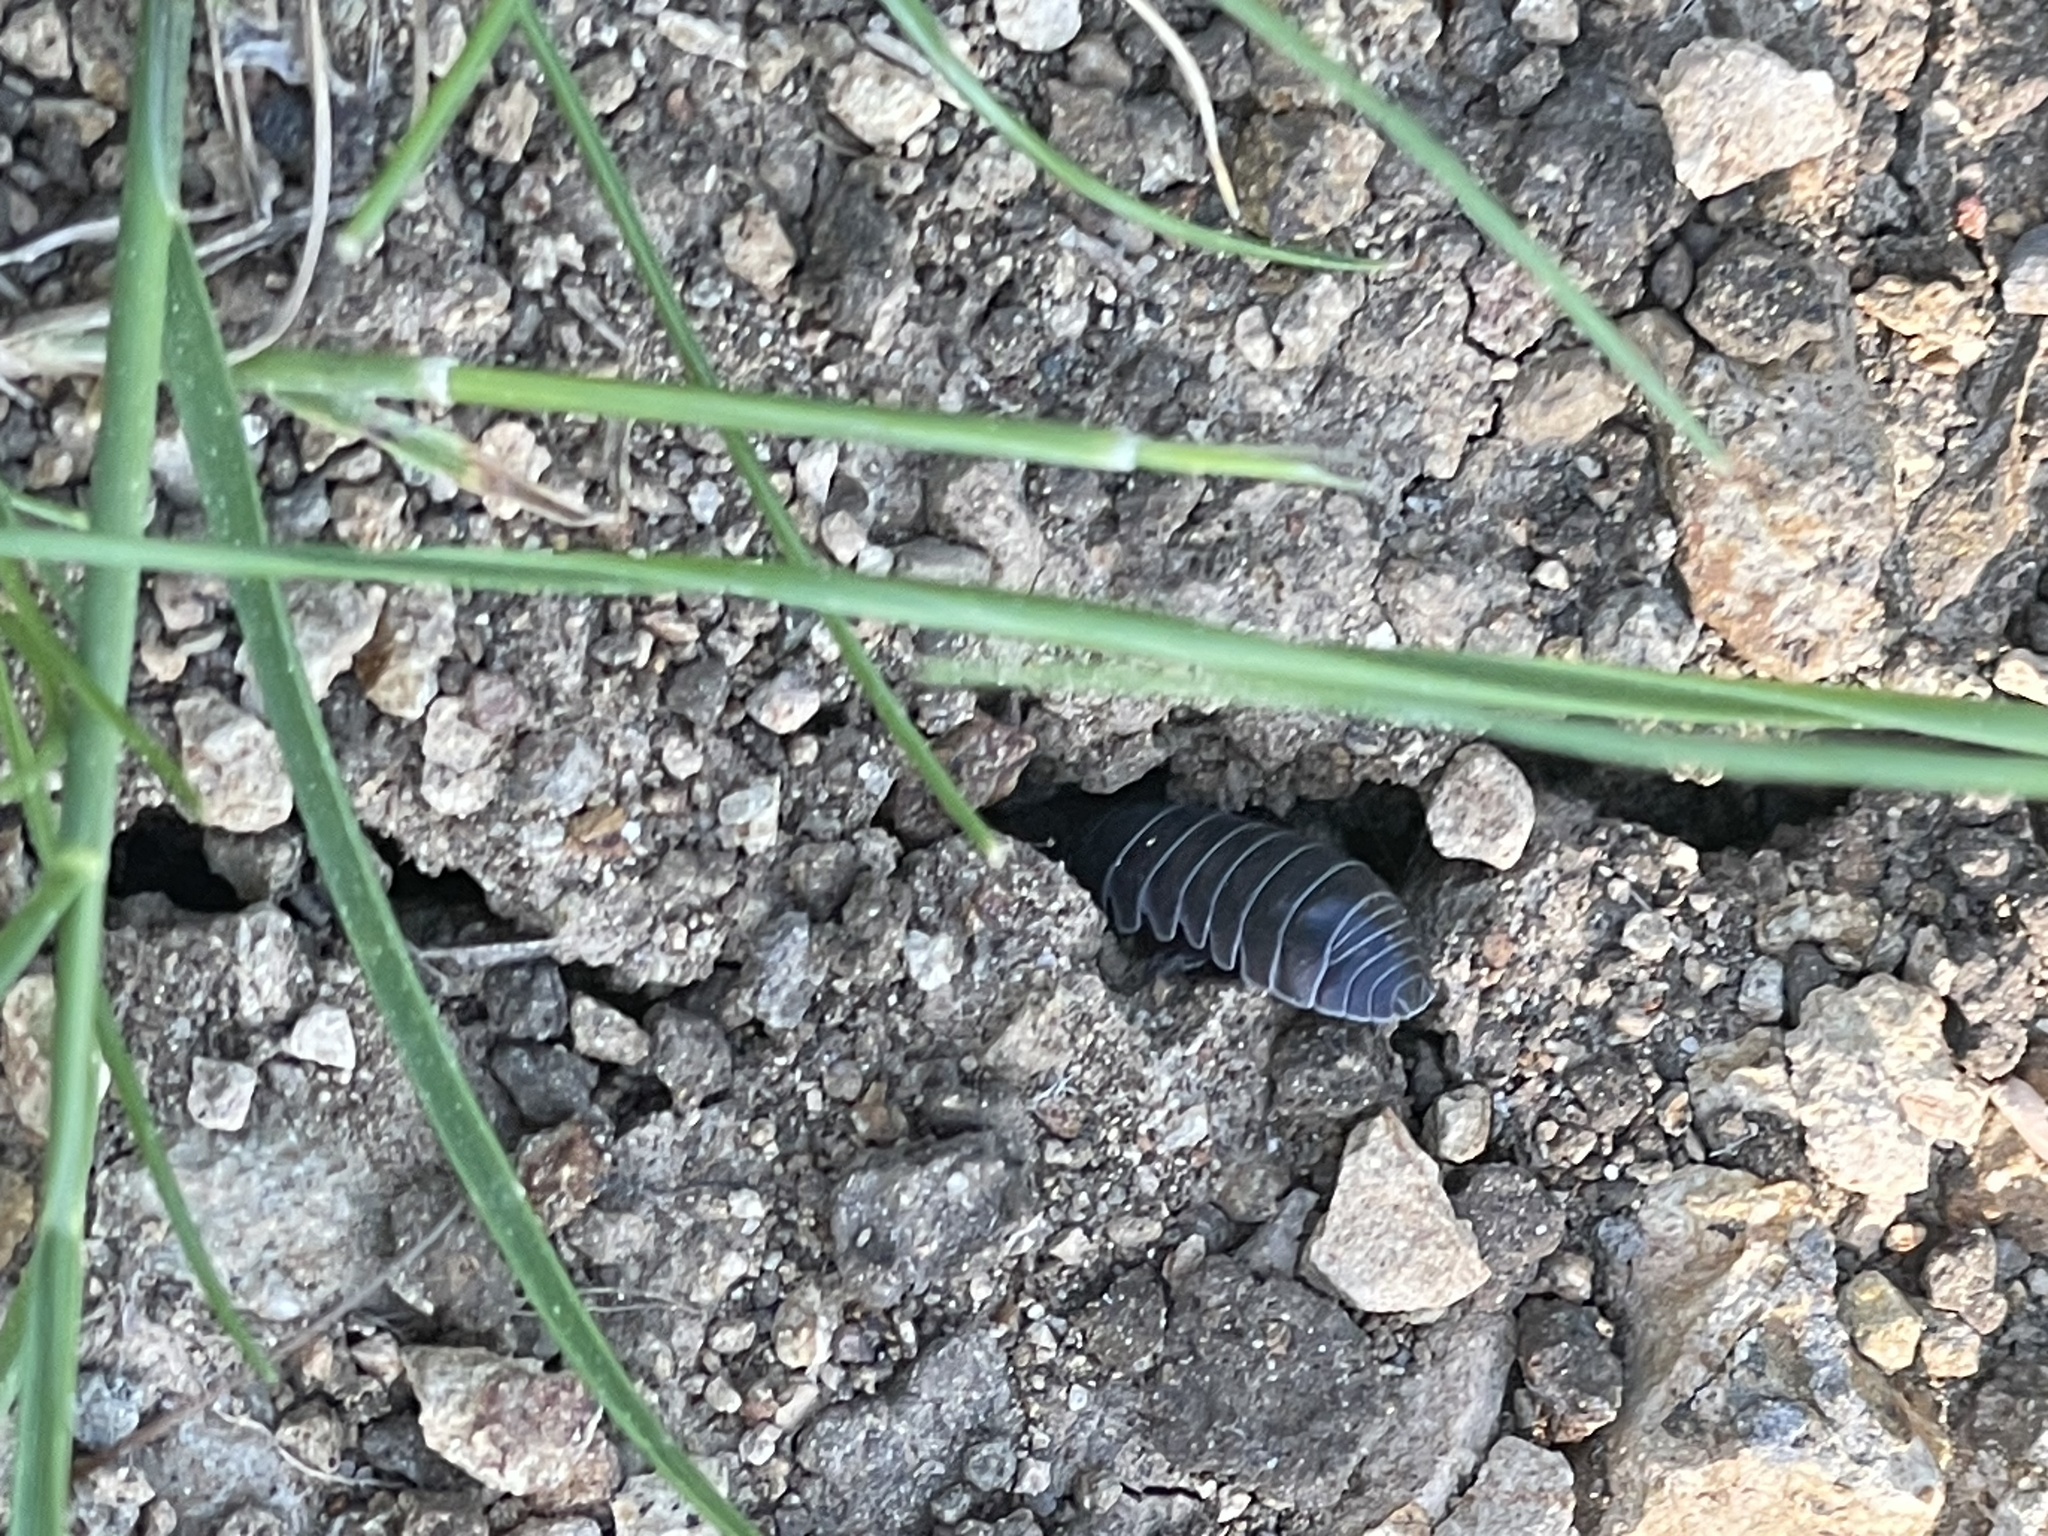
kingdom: Animalia
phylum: Arthropoda
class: Malacostraca
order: Isopoda
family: Armadillidiidae
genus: Armadillidium
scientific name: Armadillidium vulgare
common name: Common pill woodlouse
